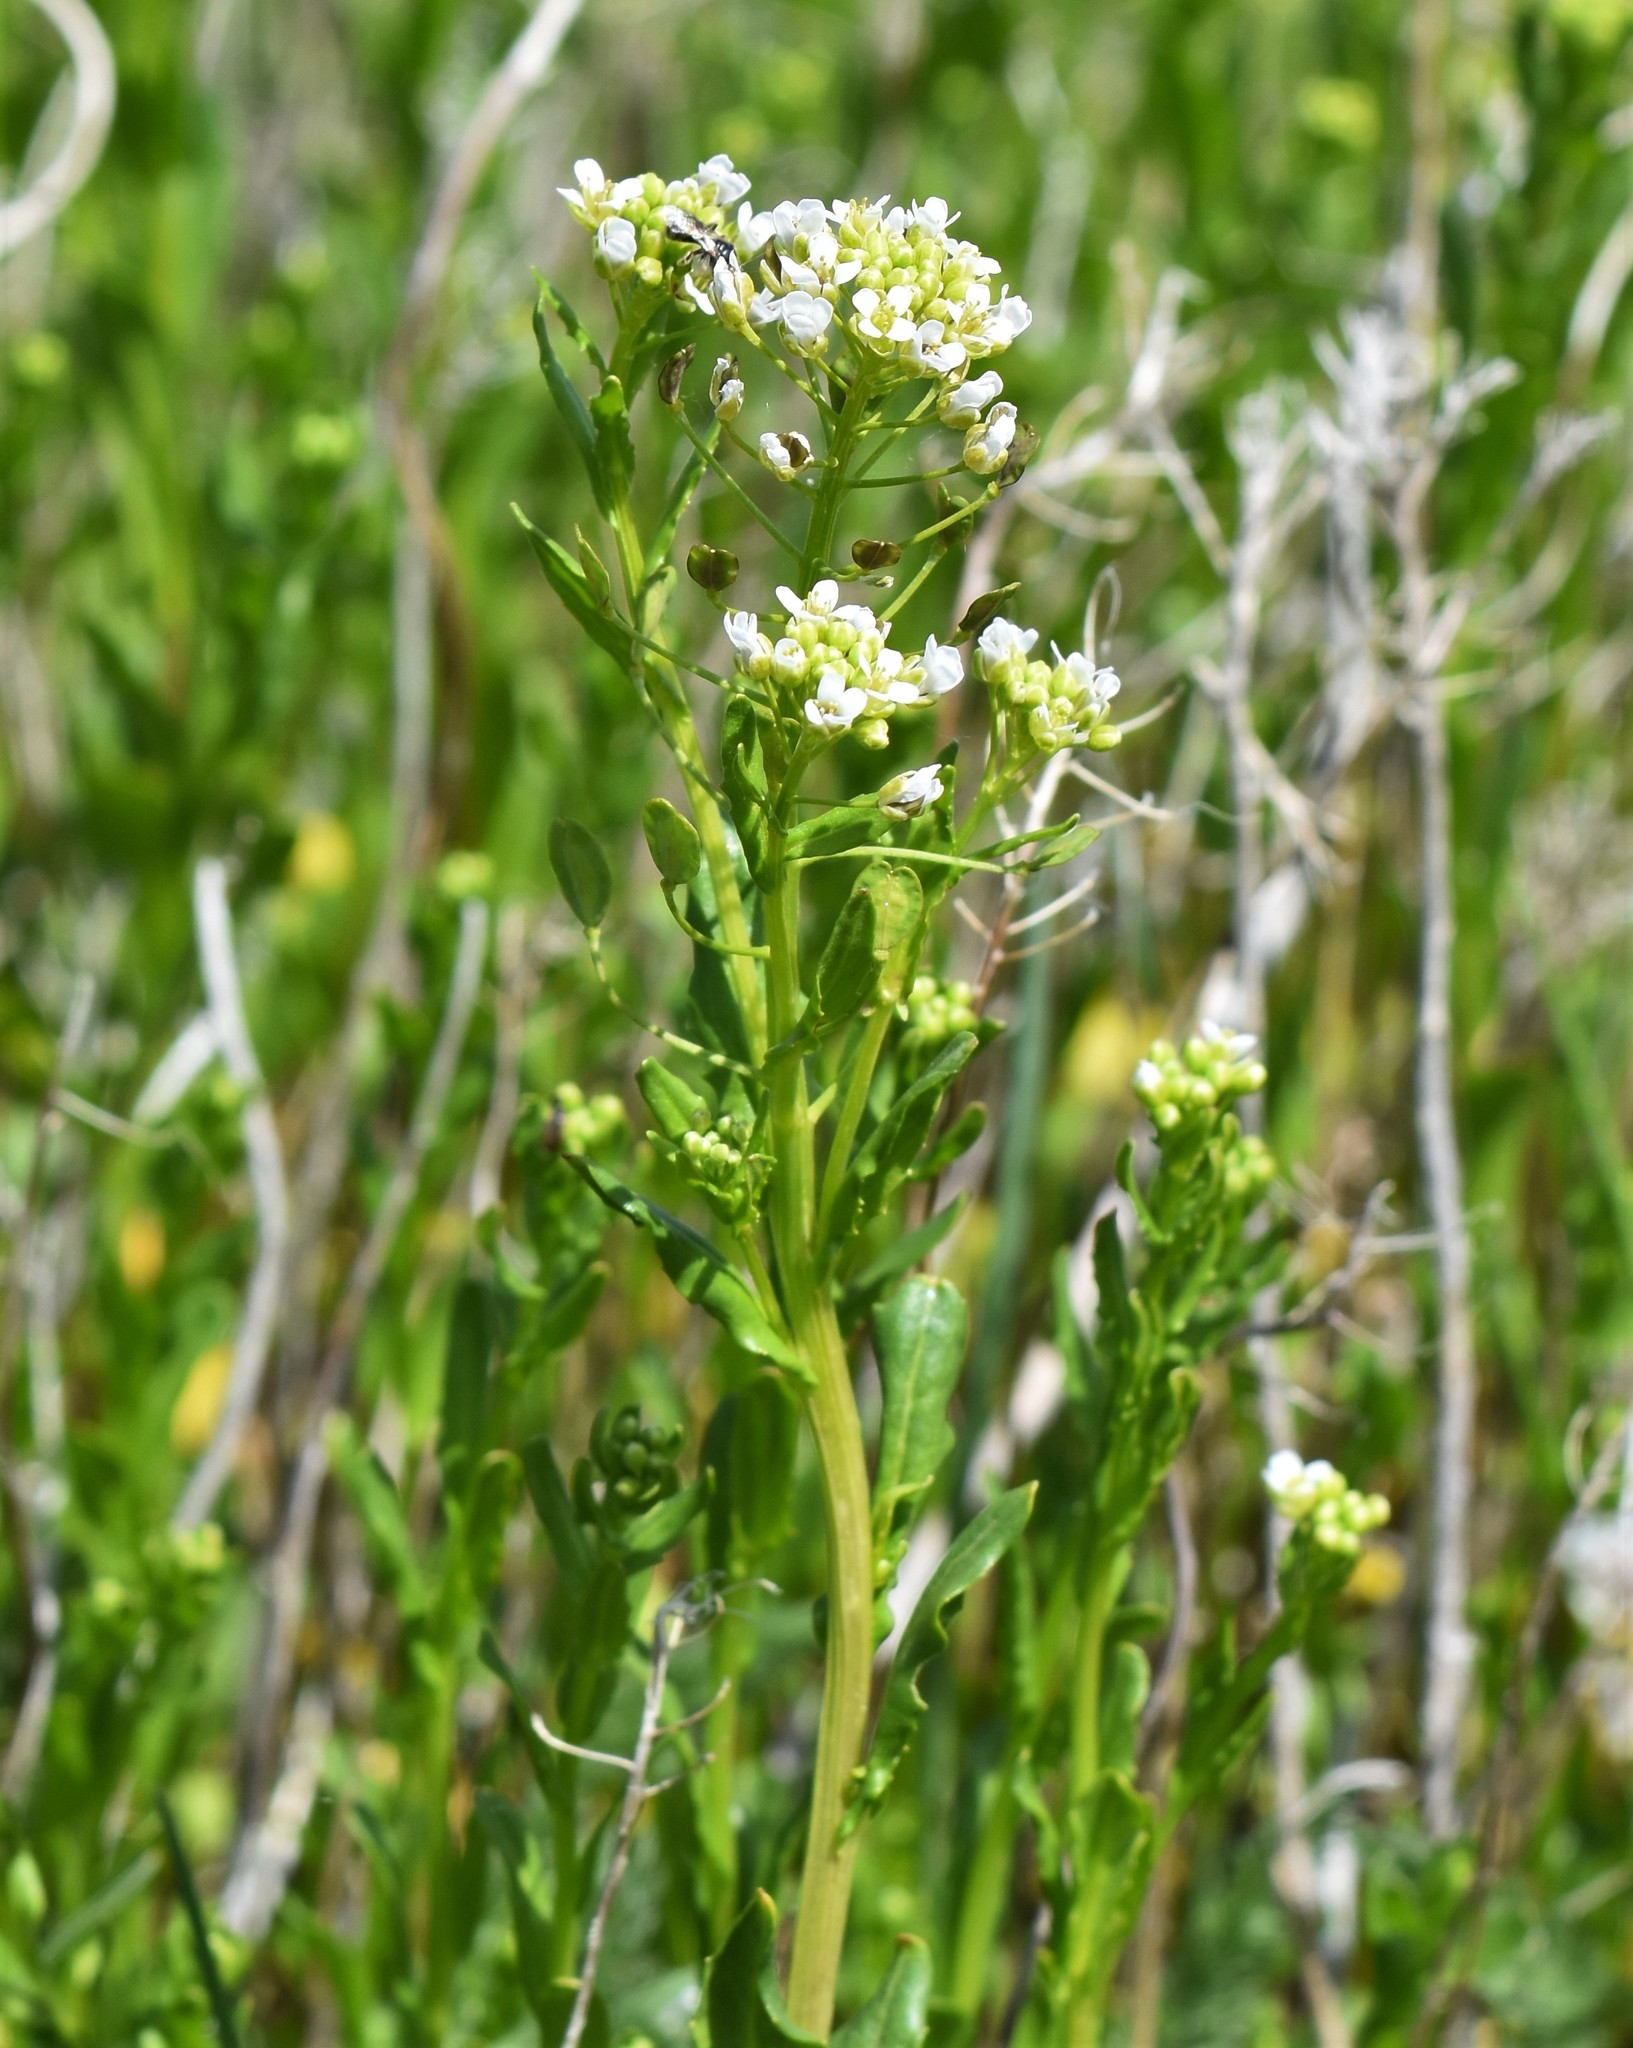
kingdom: Plantae
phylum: Tracheophyta
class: Magnoliopsida
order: Brassicales
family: Brassicaceae
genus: Thlaspi
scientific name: Thlaspi arvense
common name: Field pennycress
